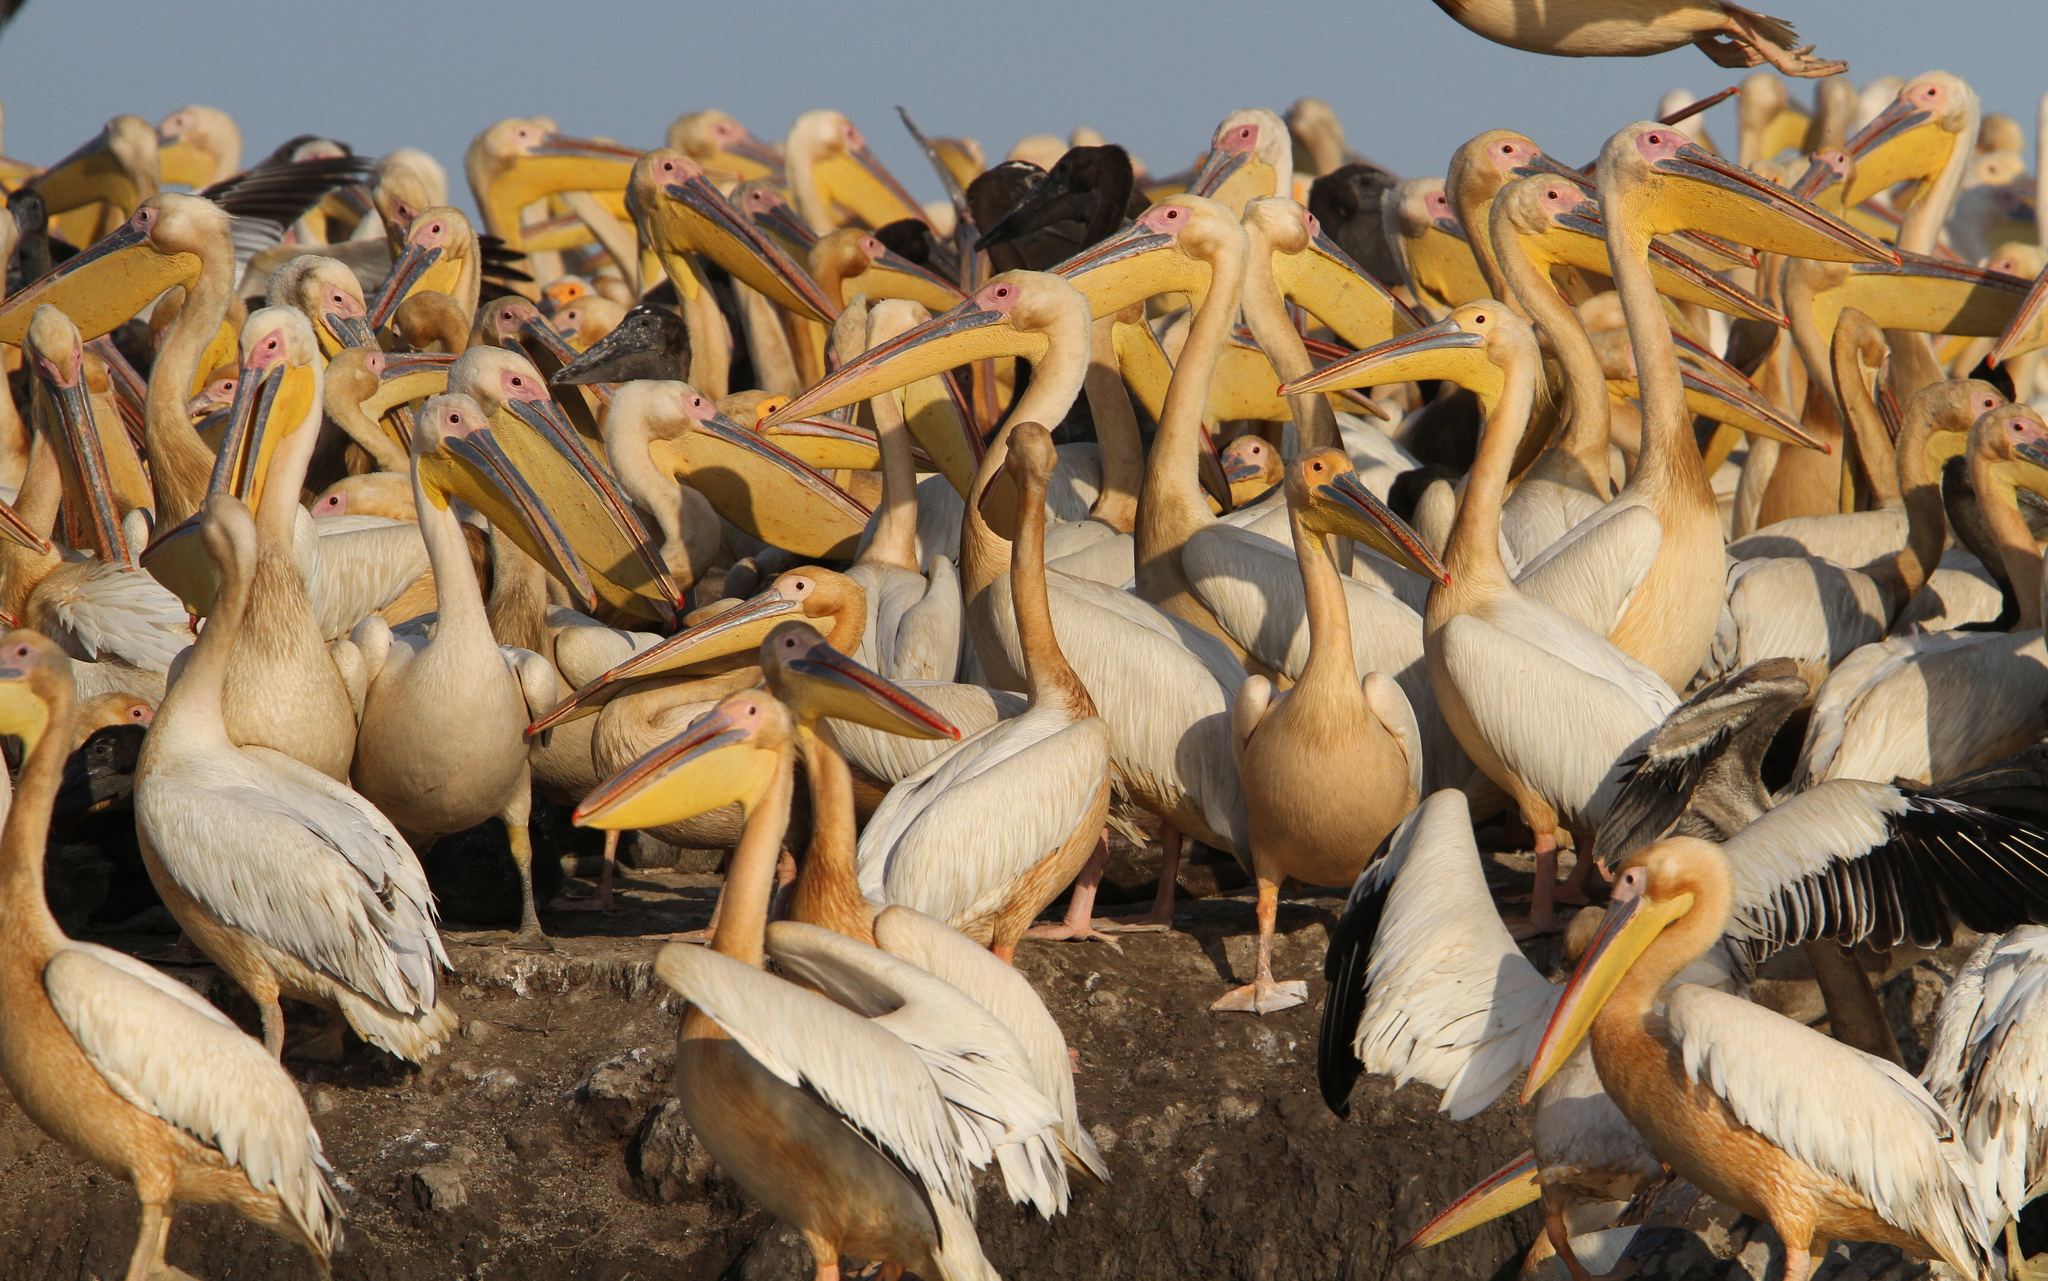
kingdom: Animalia
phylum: Chordata
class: Aves
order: Pelecaniformes
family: Pelecanidae
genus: Pelecanus
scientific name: Pelecanus onocrotalus
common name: Great white pelican
